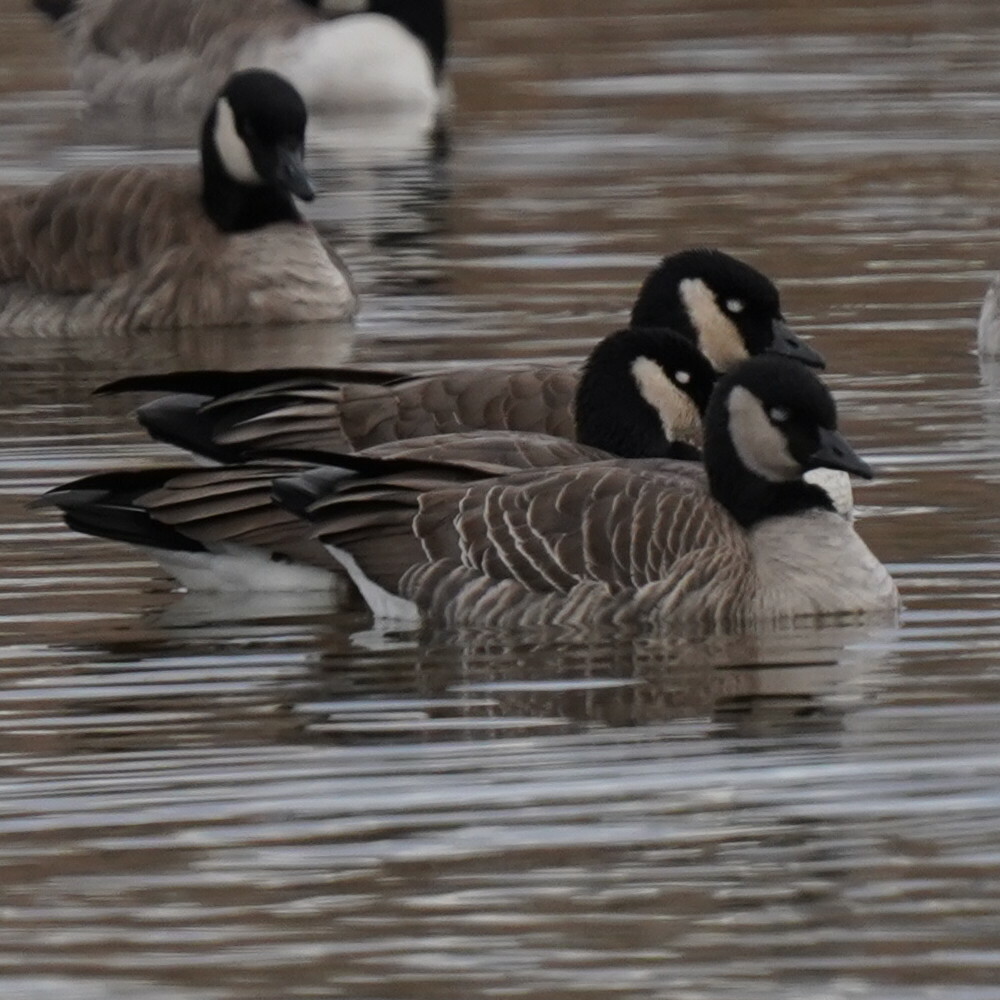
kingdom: Animalia
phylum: Chordata
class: Aves
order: Anseriformes
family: Anatidae
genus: Branta
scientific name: Branta hutchinsii
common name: Cackling goose
